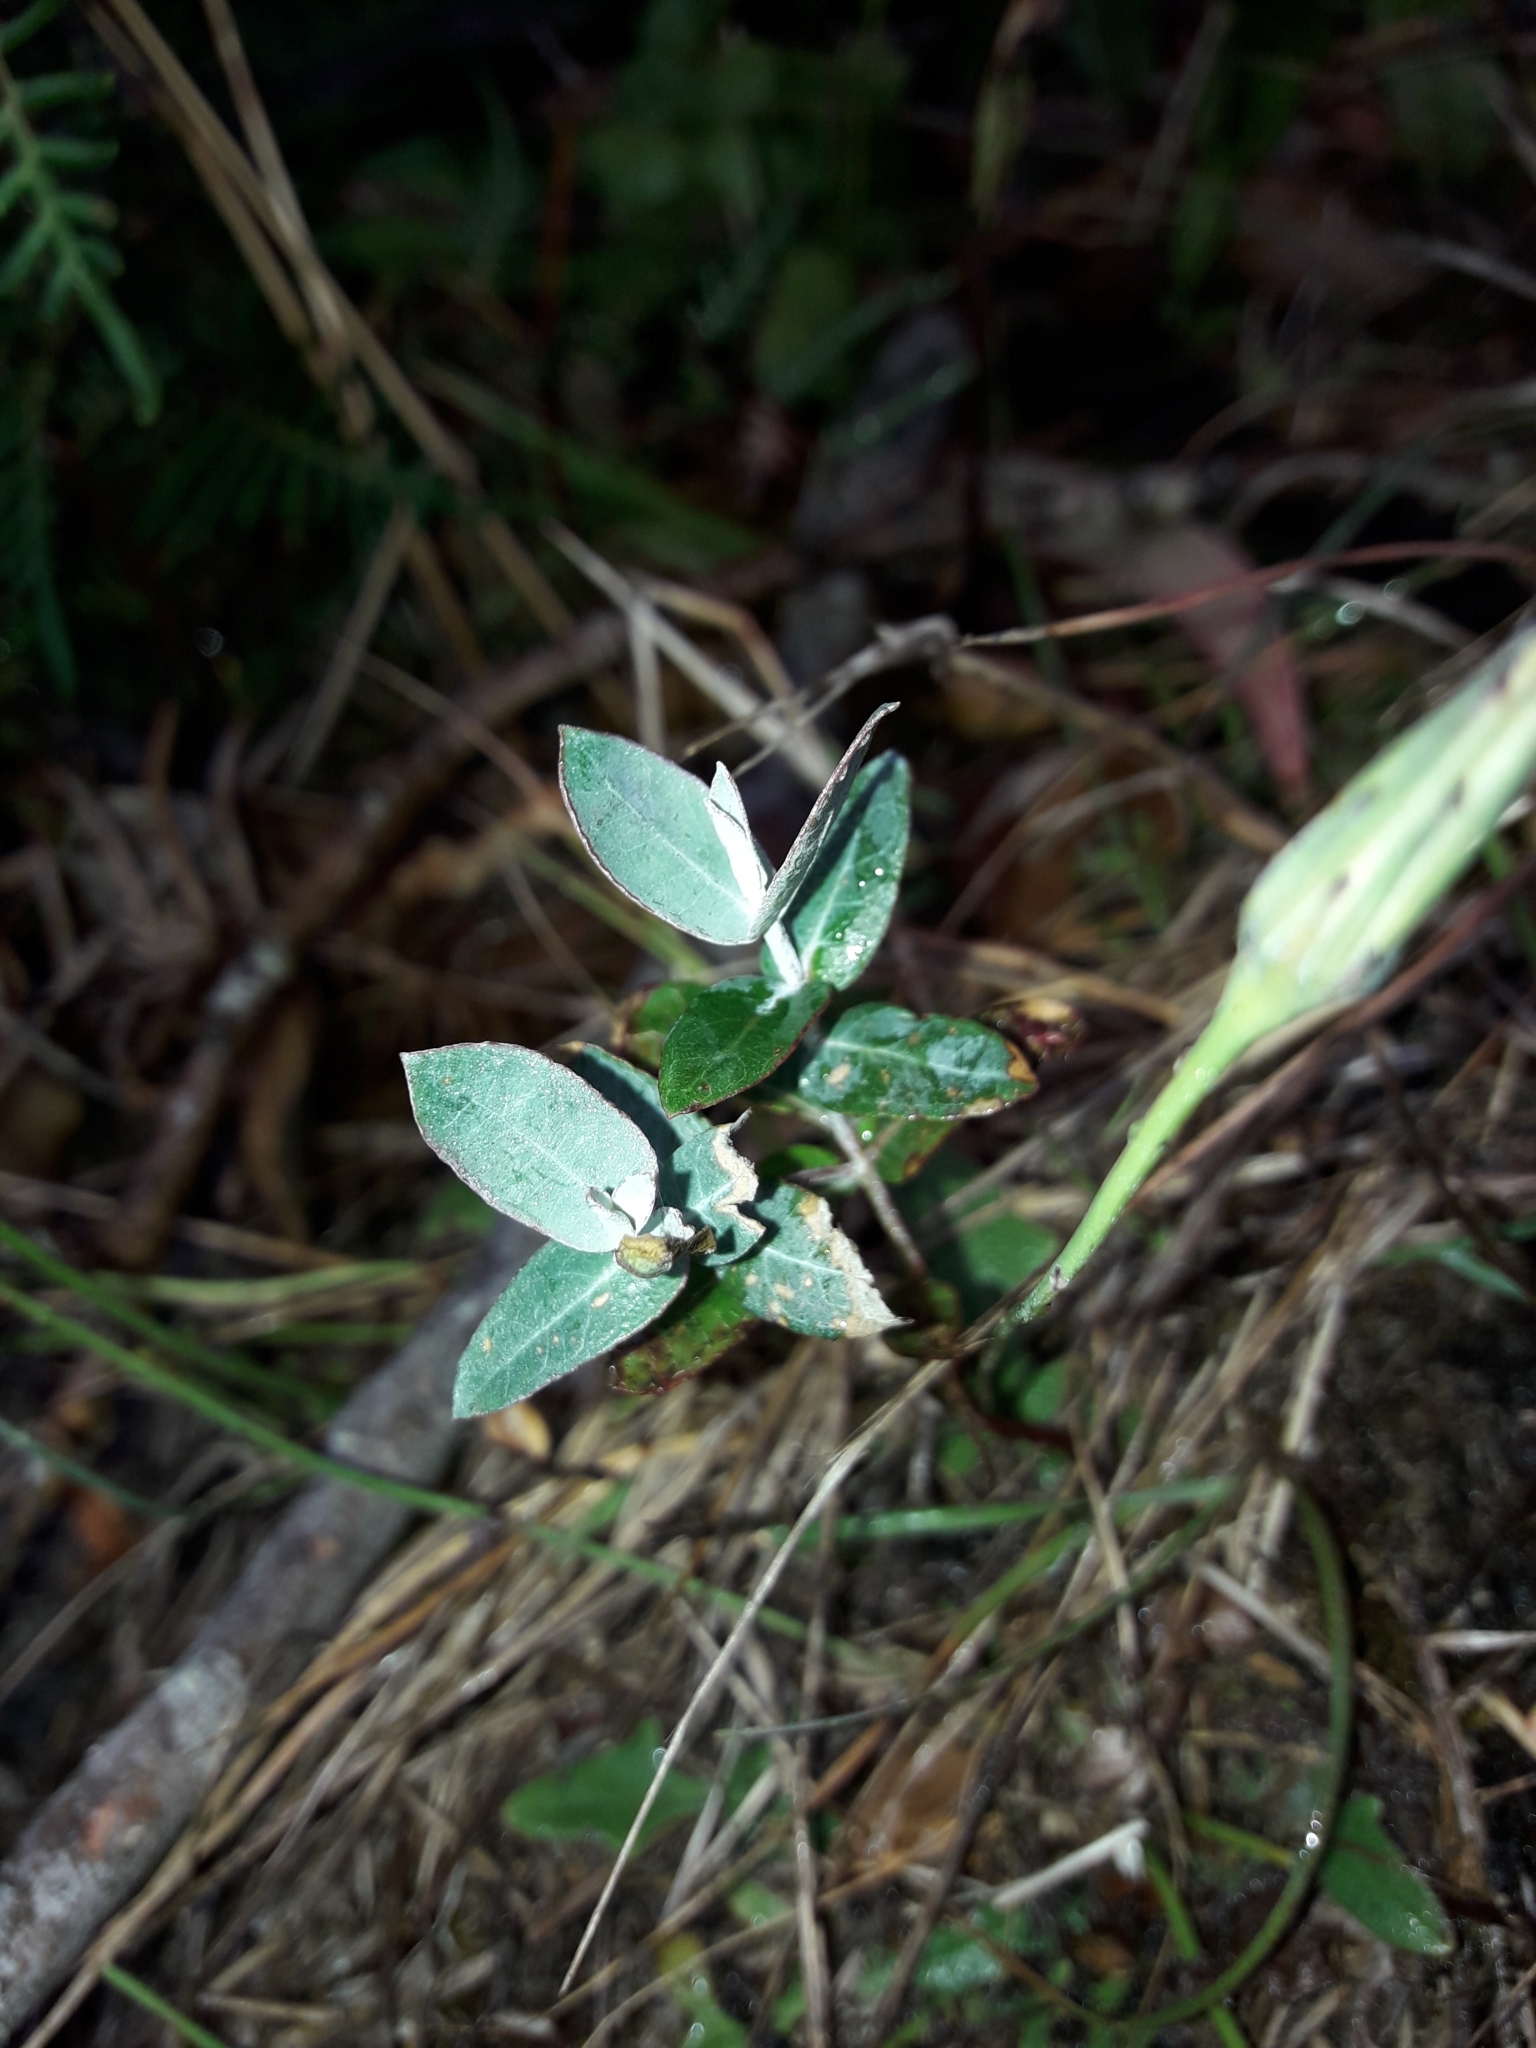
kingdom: Plantae
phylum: Tracheophyta
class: Magnoliopsida
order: Myrtales
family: Myrtaceae
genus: Eucalyptus
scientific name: Eucalyptus globulus
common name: Southern blue-gum
